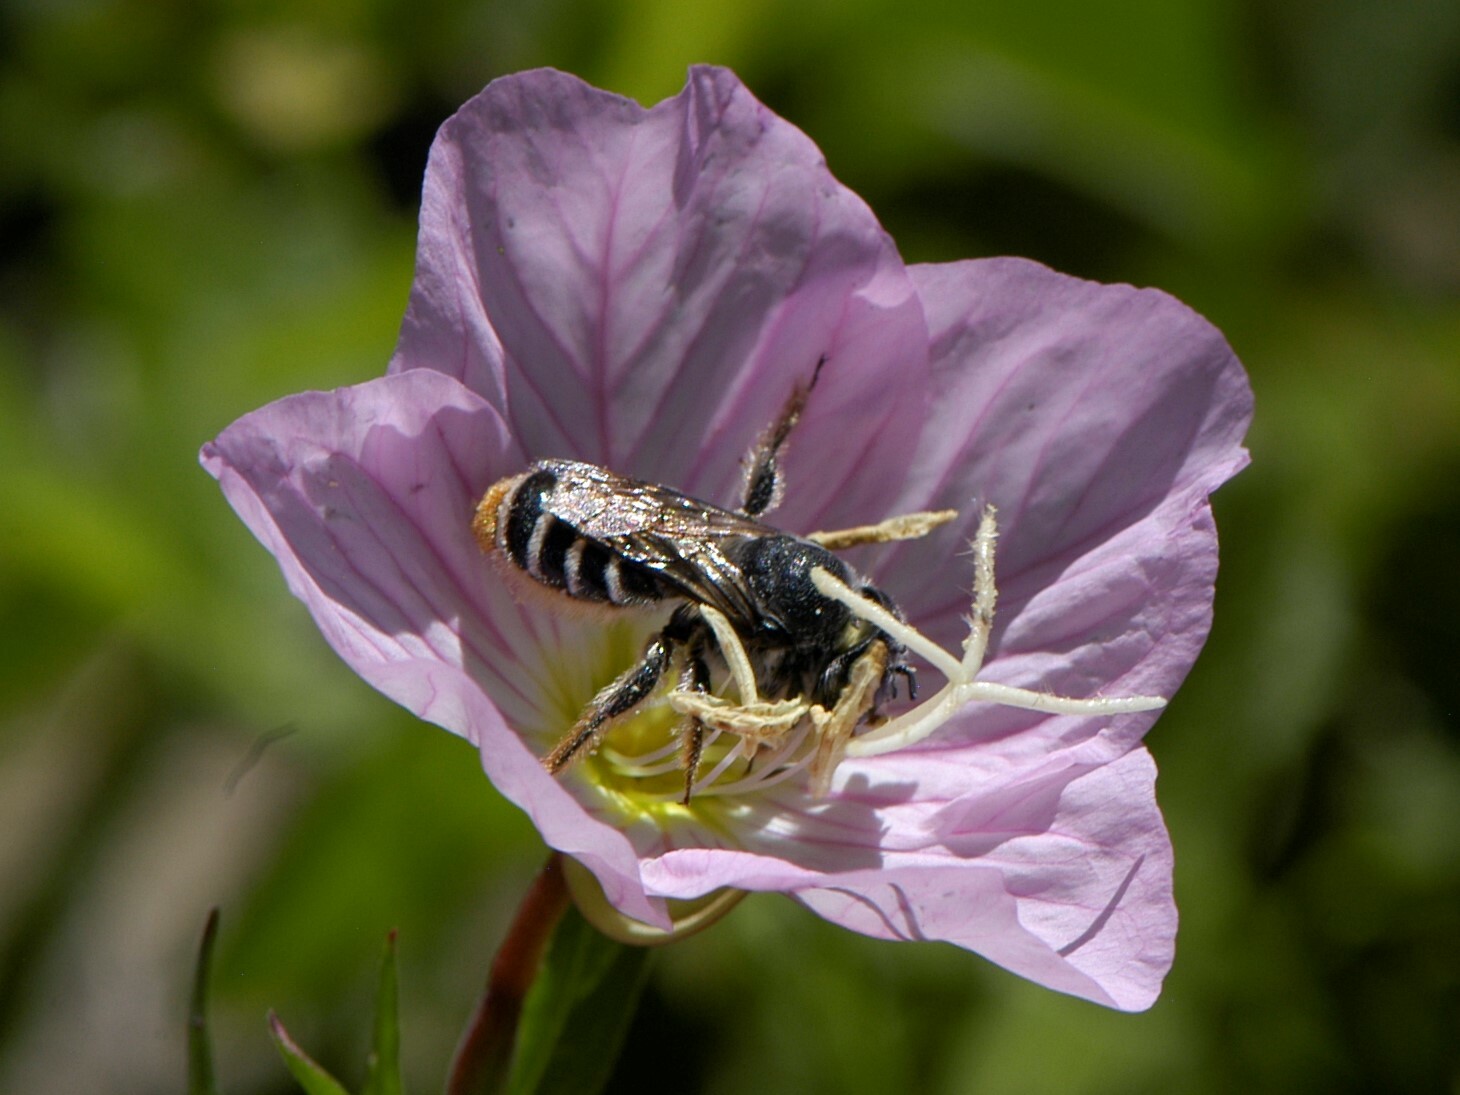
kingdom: Animalia
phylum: Arthropoda
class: Insecta
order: Hymenoptera
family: Megachilidae
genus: Lithurgopsis
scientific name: Lithurgopsis apicalis
